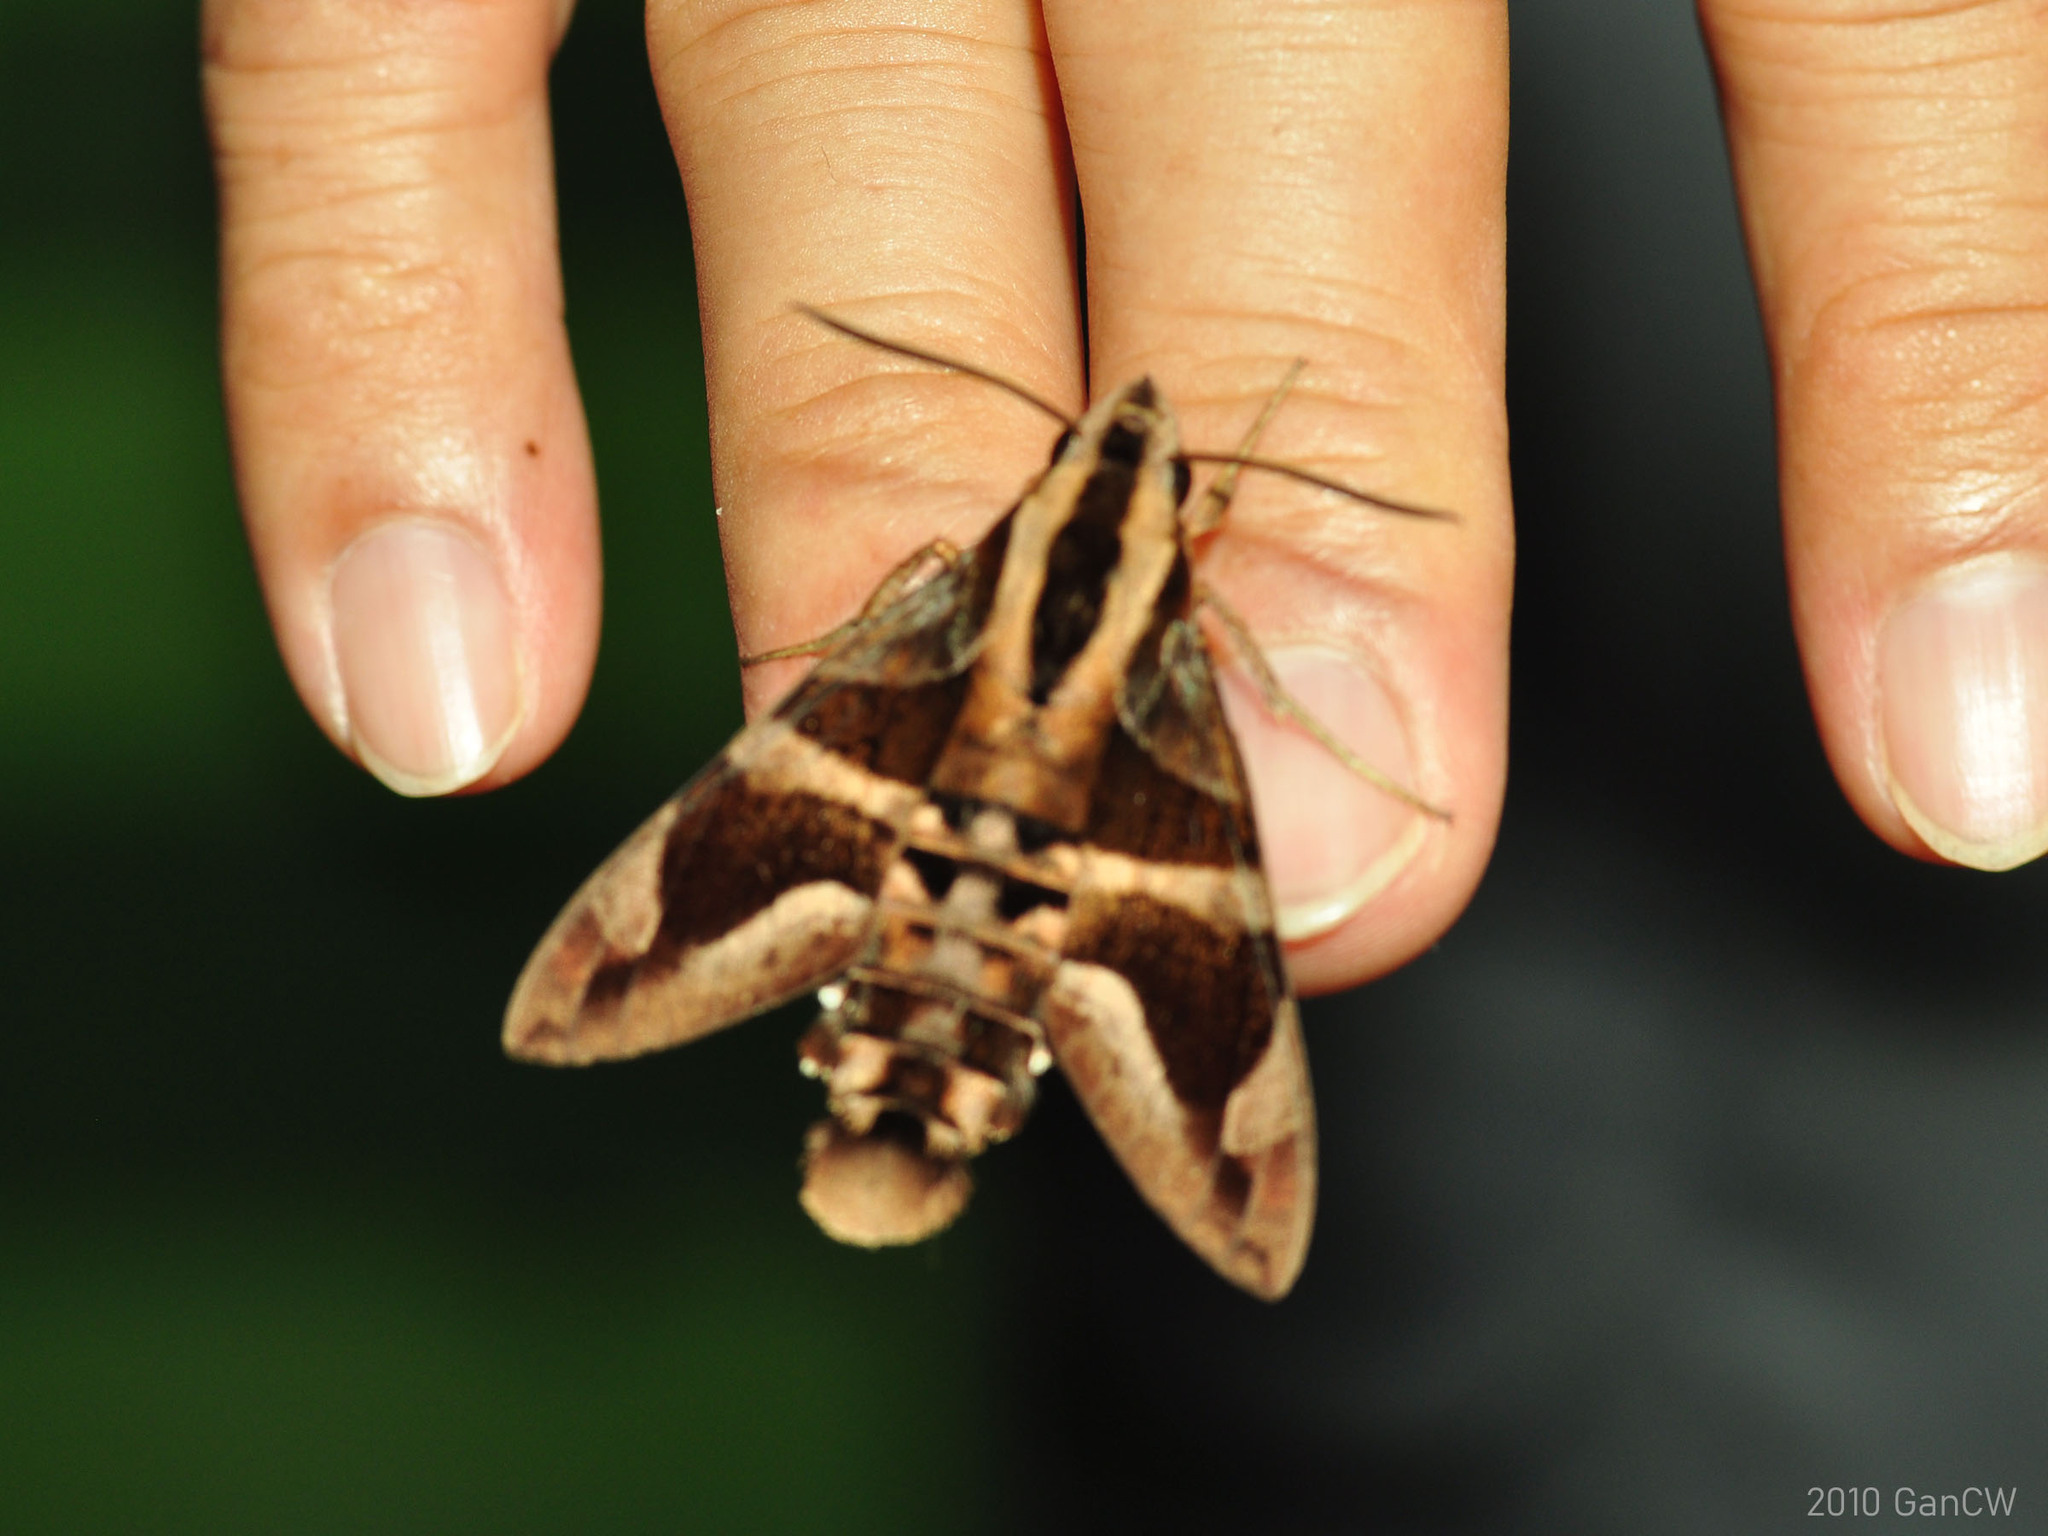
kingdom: Animalia
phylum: Arthropoda
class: Insecta
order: Lepidoptera
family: Sphingidae
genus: Macroglossum
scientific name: Macroglossum mitchellii
